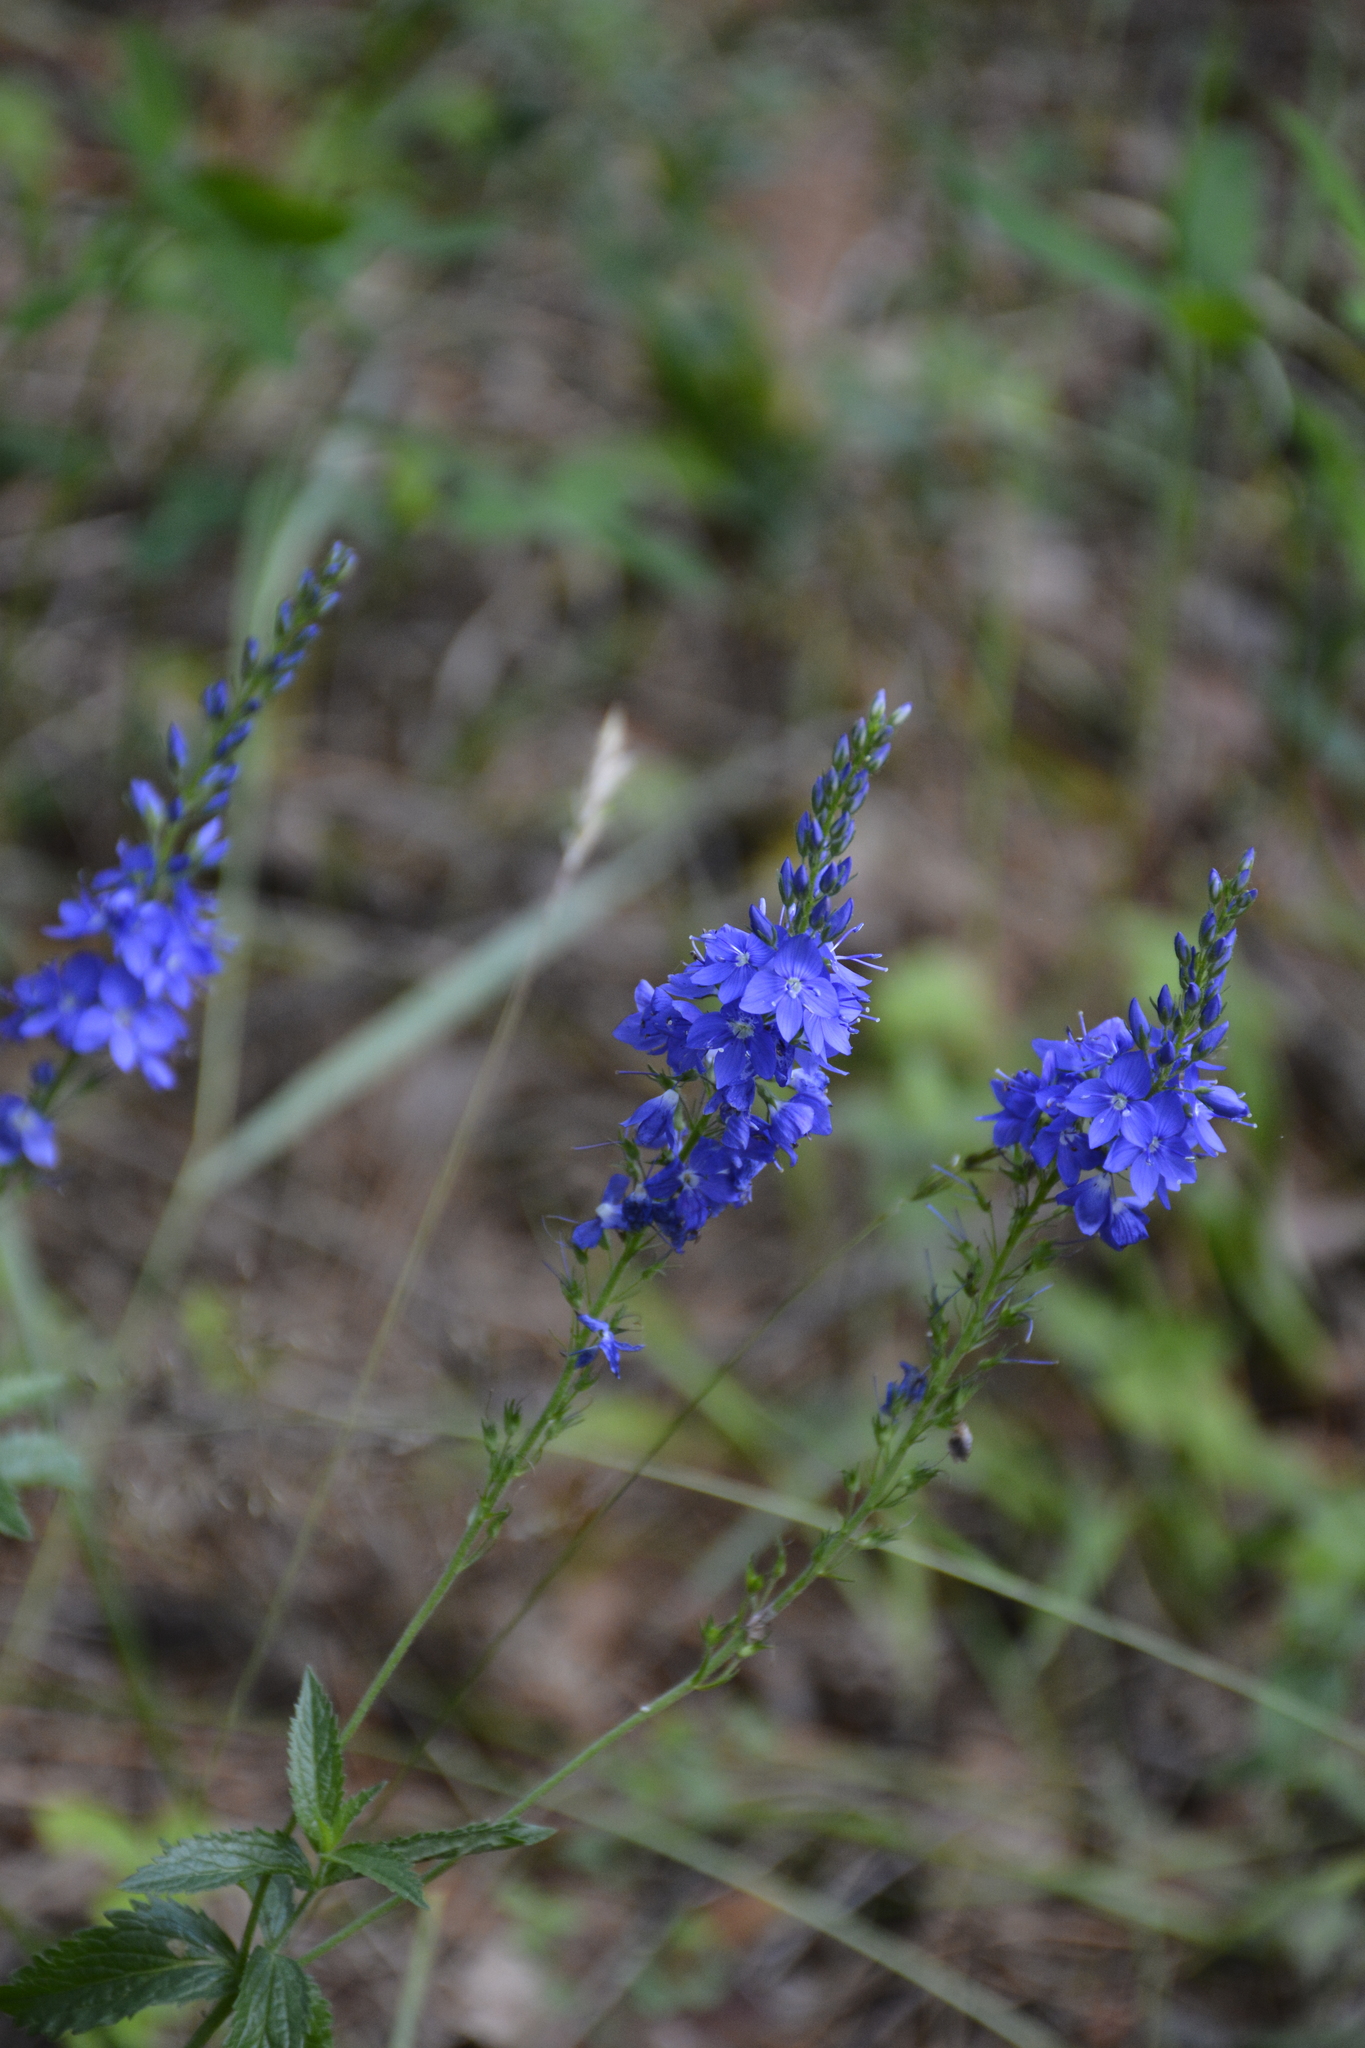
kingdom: Plantae
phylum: Tracheophyta
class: Magnoliopsida
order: Lamiales
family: Plantaginaceae
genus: Veronica
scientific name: Veronica teucrium
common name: Large speedwell
